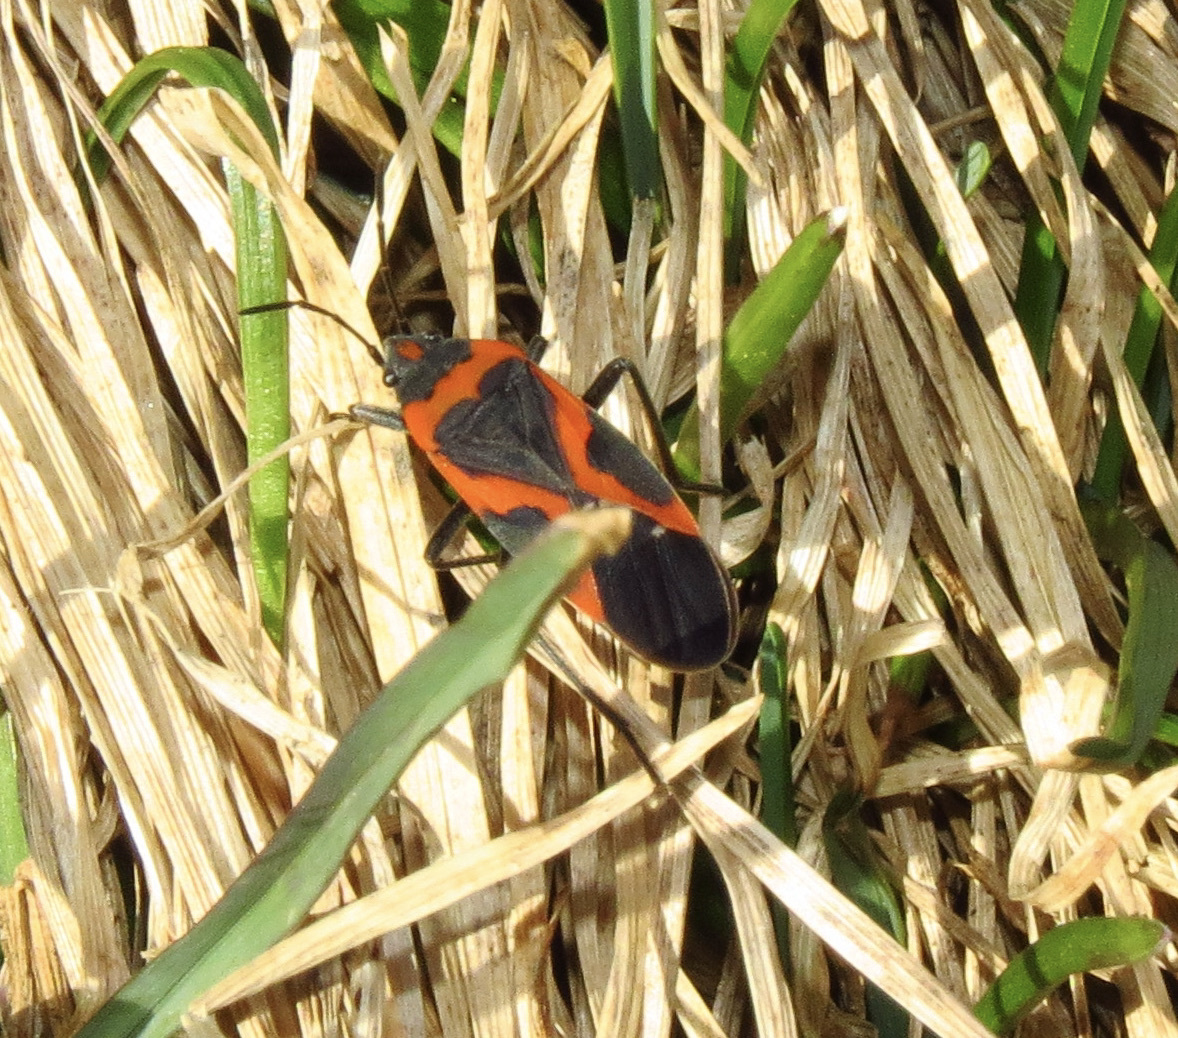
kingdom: Animalia
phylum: Arthropoda
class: Insecta
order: Hemiptera
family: Lygaeidae
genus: Lygaeus
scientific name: Lygaeus kalmii
